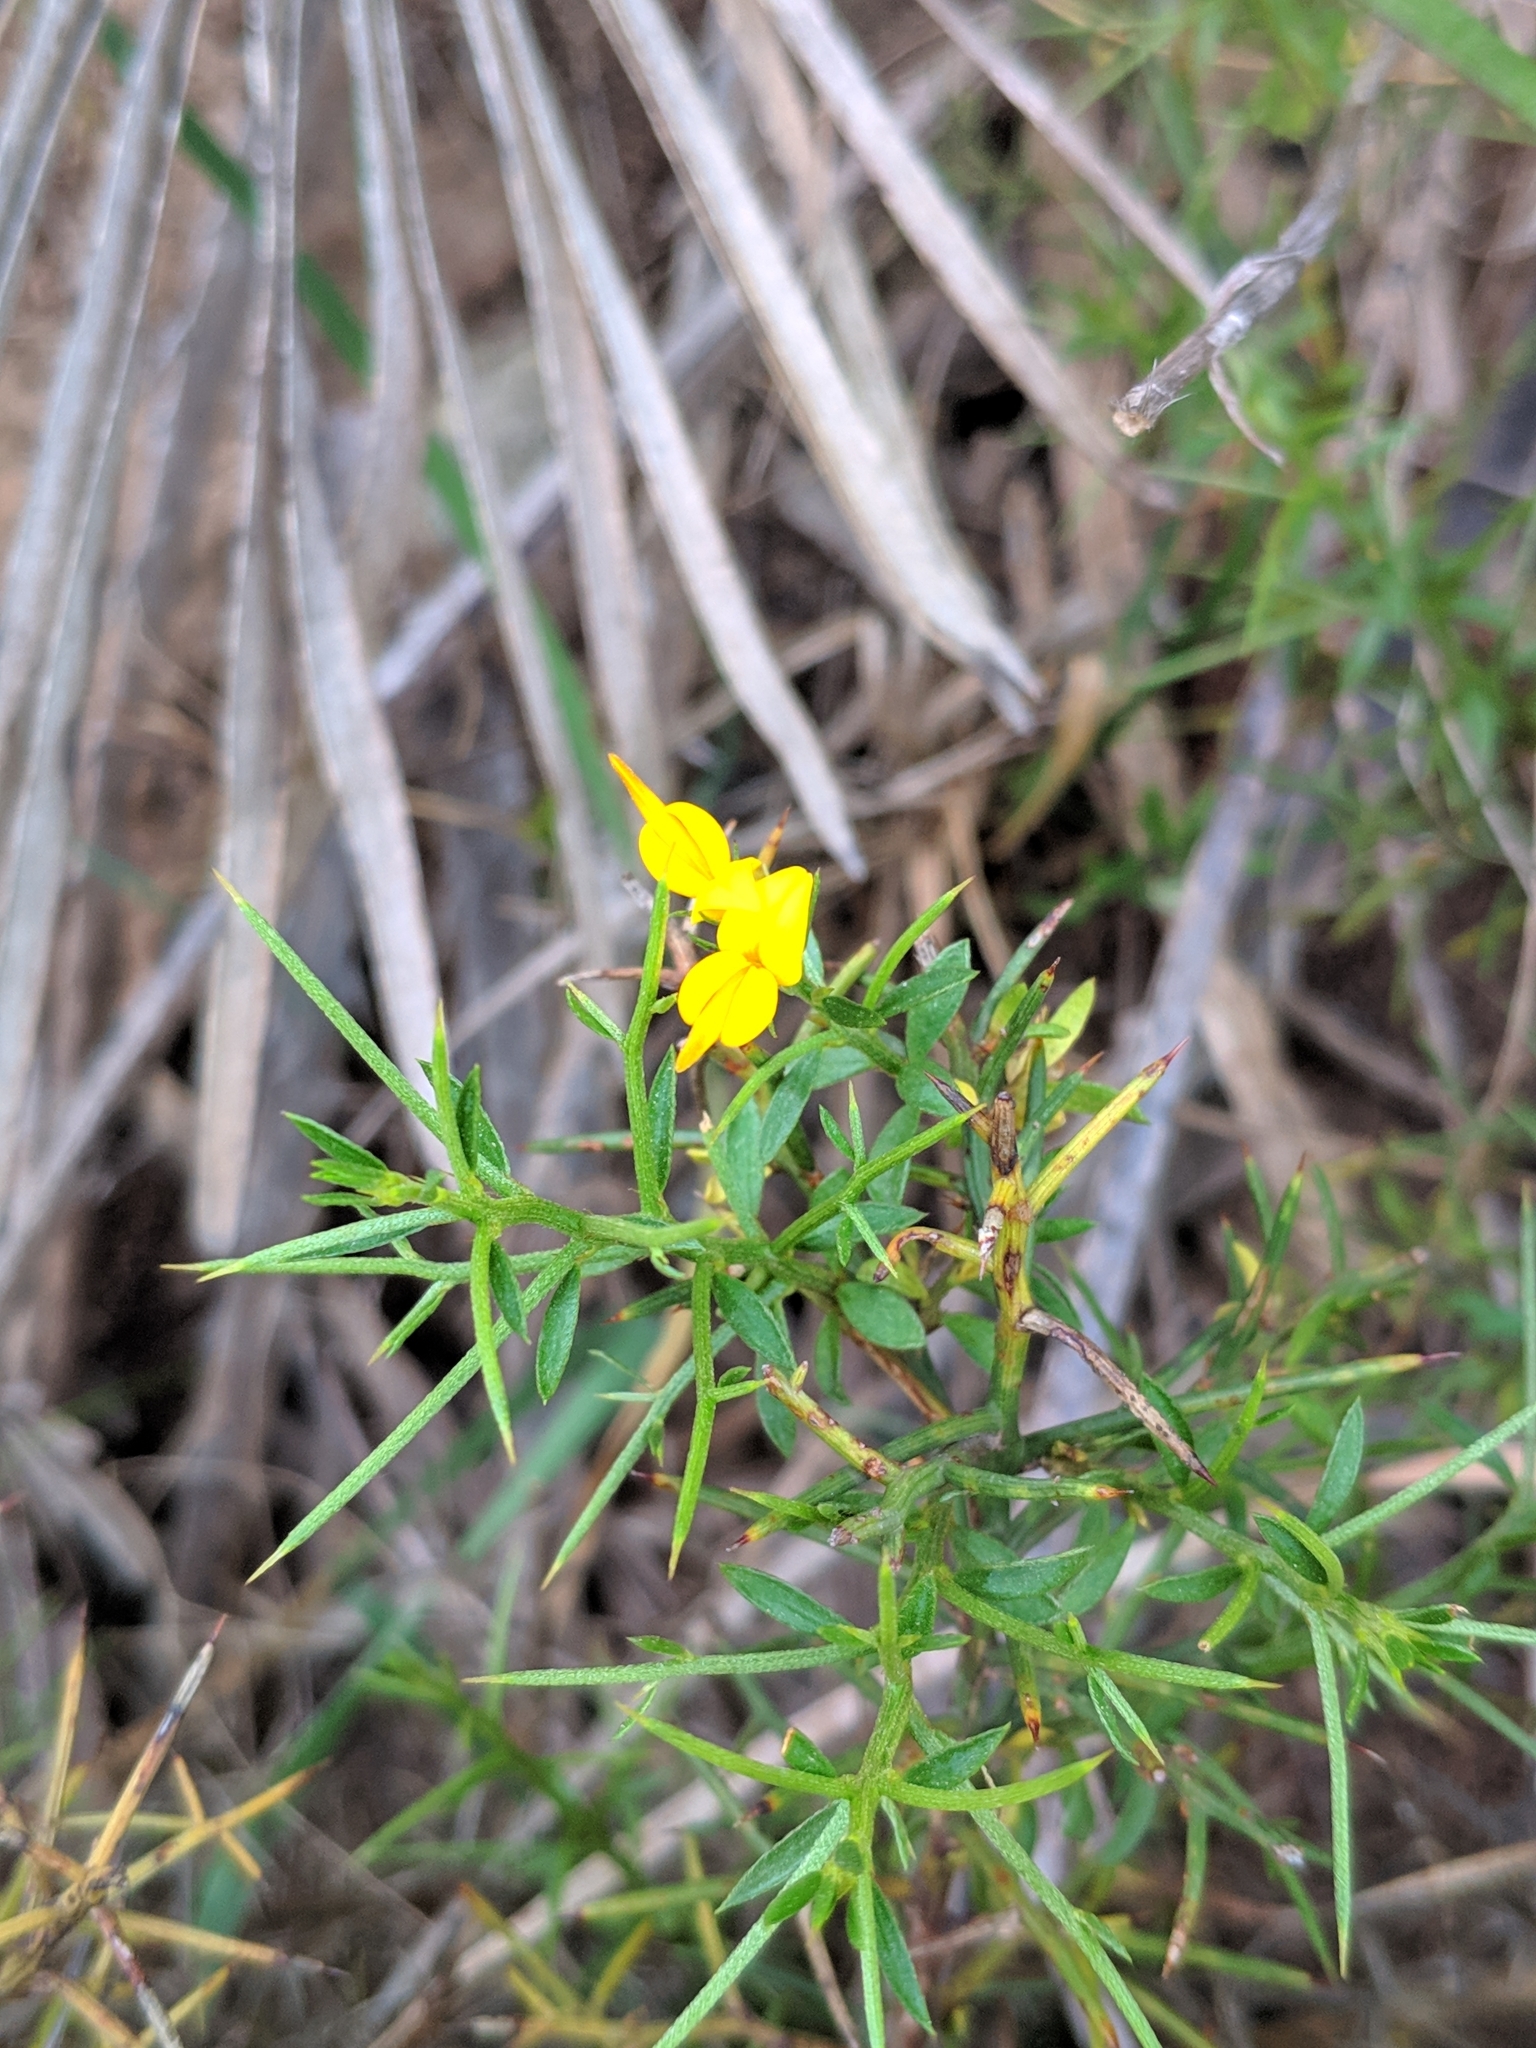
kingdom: Plantae
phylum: Tracheophyta
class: Magnoliopsida
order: Fabales
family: Fabaceae
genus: Genista
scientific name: Genista tricuspidata
